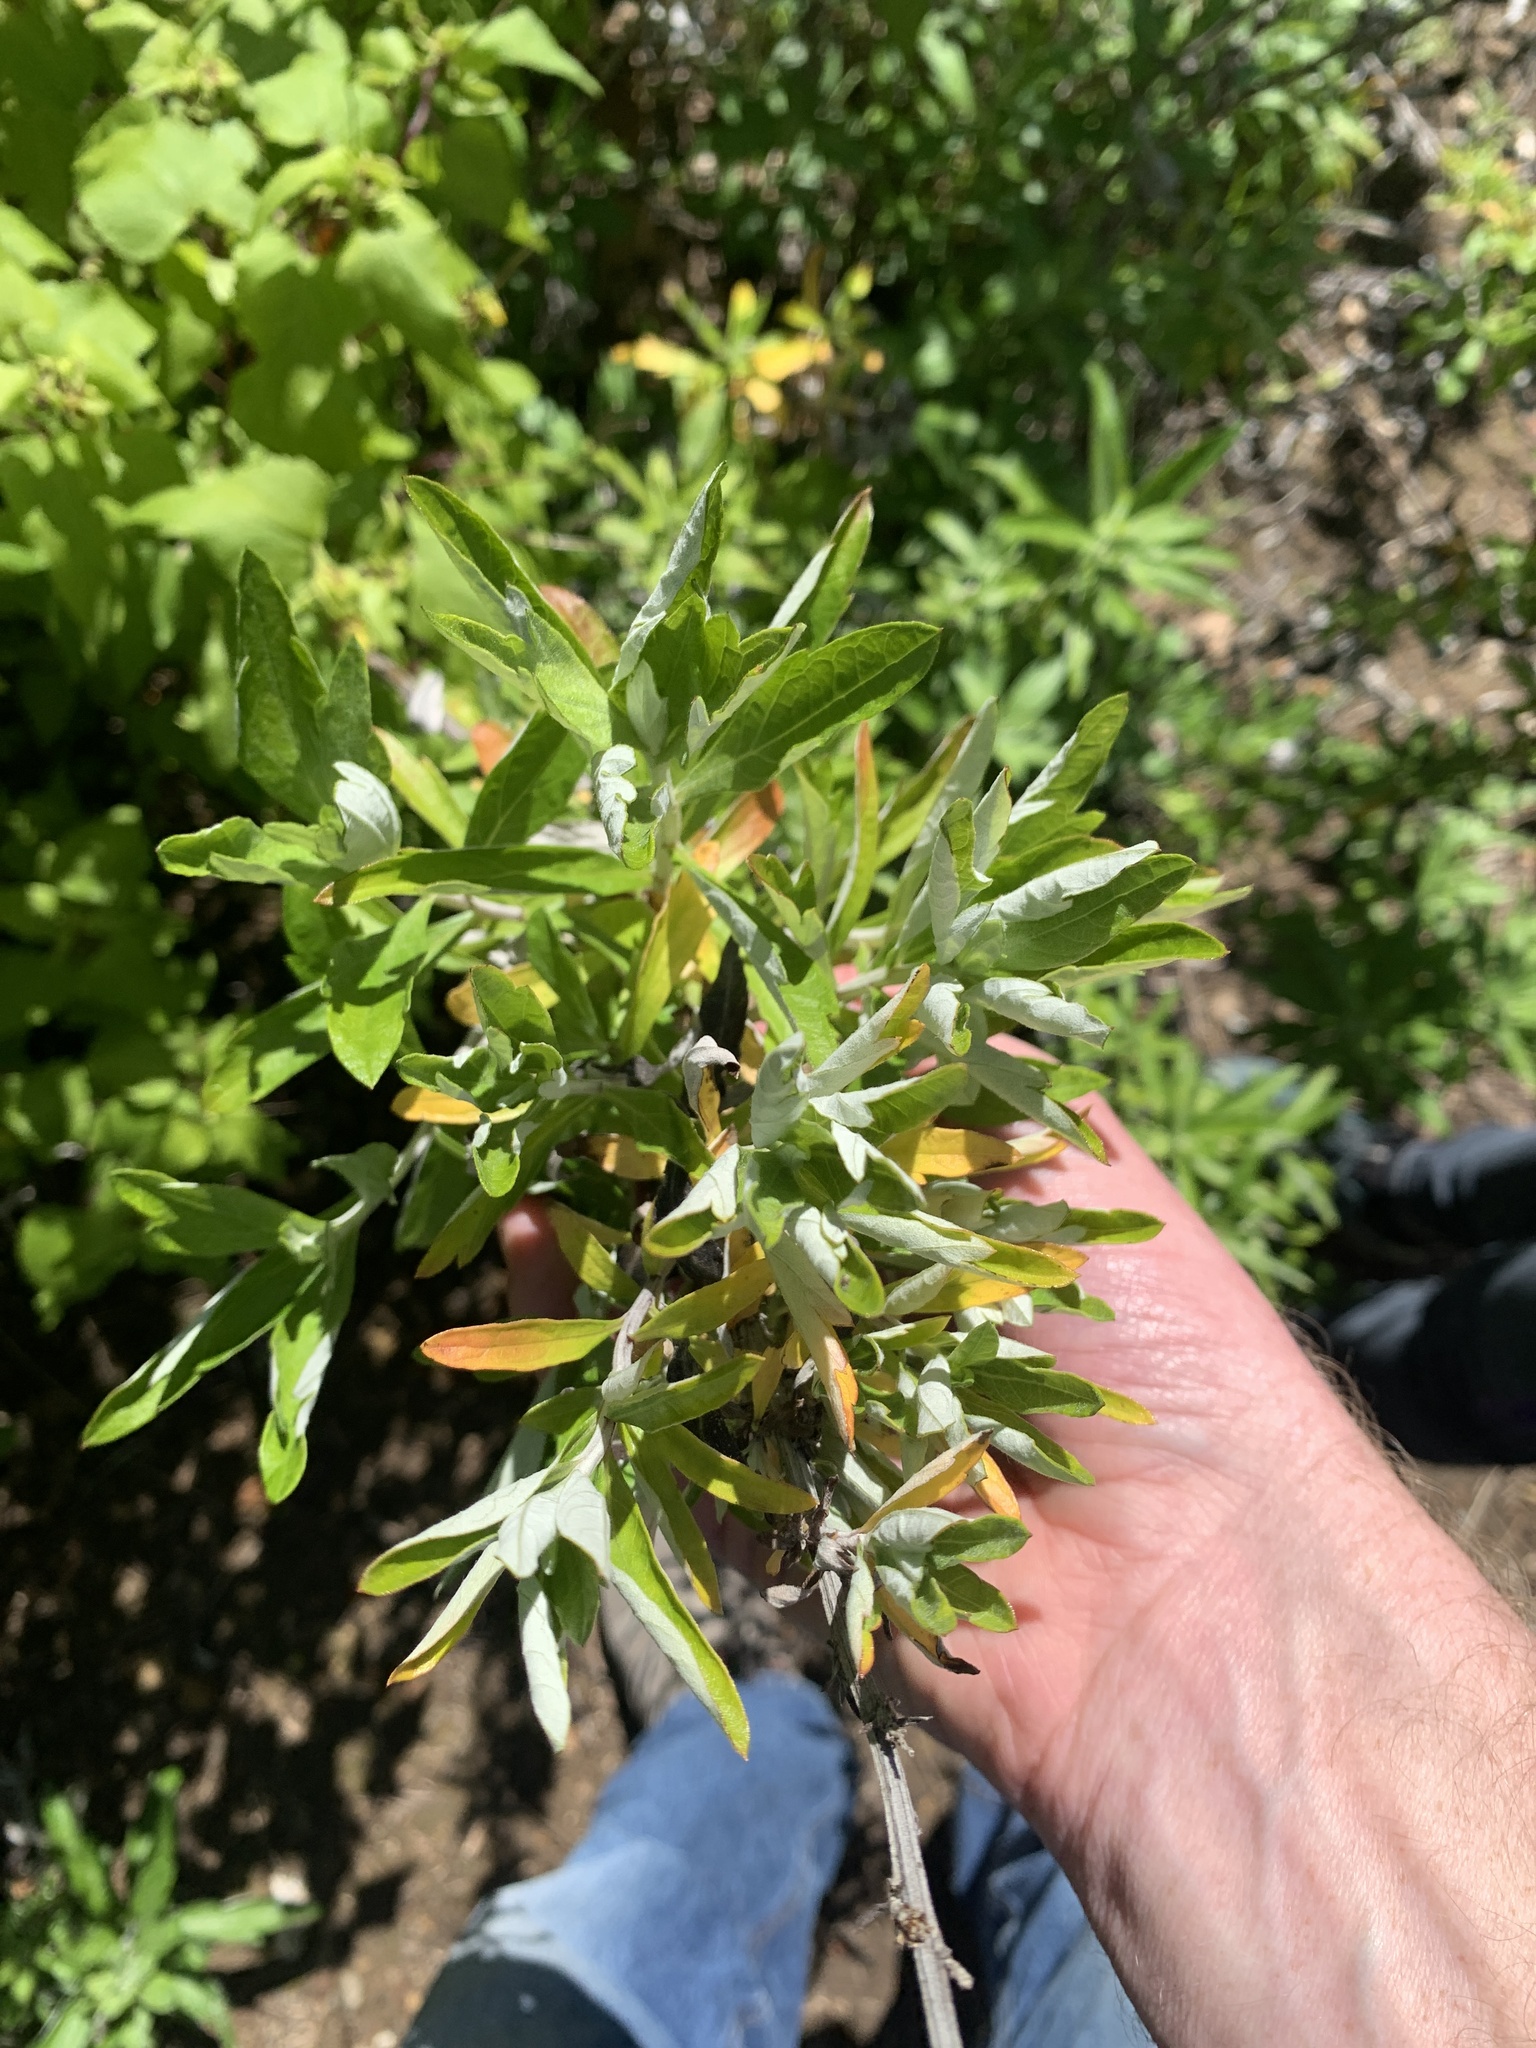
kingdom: Plantae
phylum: Tracheophyta
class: Magnoliopsida
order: Asterales
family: Asteraceae
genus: Artemisia
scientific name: Artemisia douglasiana
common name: Northwest mugwort
